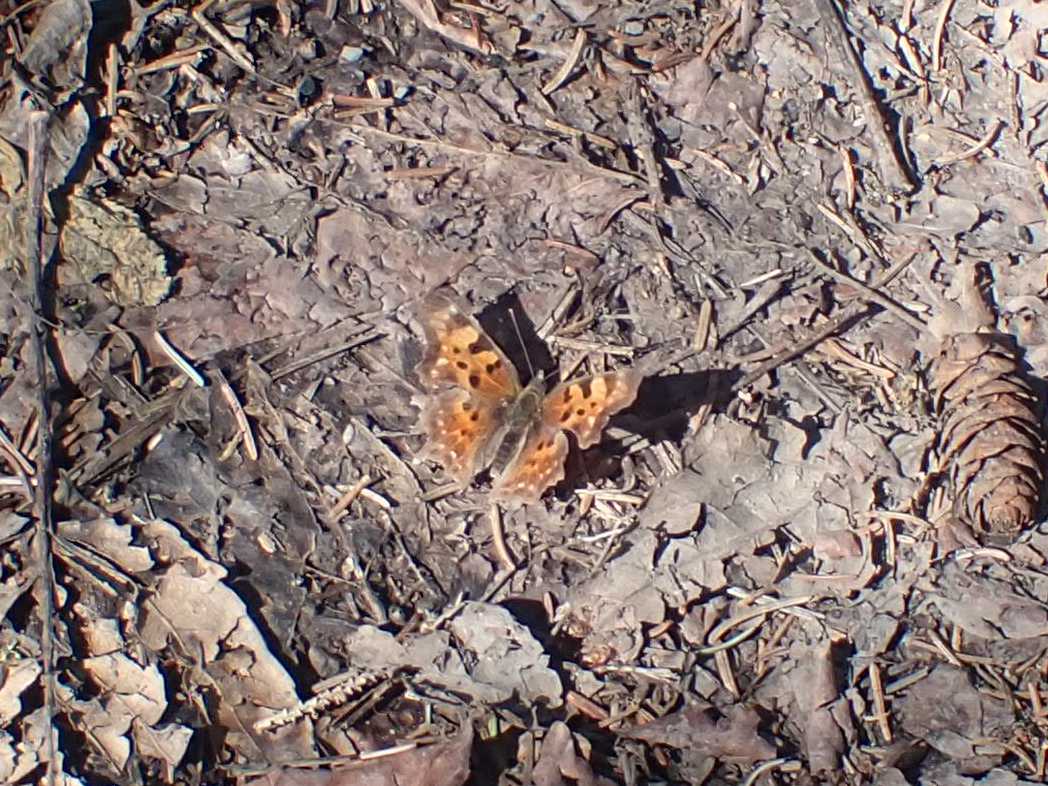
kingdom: Animalia
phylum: Arthropoda
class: Insecta
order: Lepidoptera
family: Nymphalidae
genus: Polygonia
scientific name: Polygonia faunus
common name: Green comma
